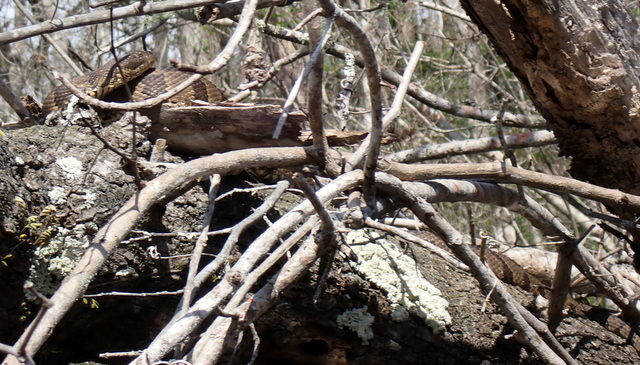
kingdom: Animalia
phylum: Chordata
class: Squamata
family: Colubridae
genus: Nerodia
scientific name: Nerodia taxispilota
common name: Brown water snake
